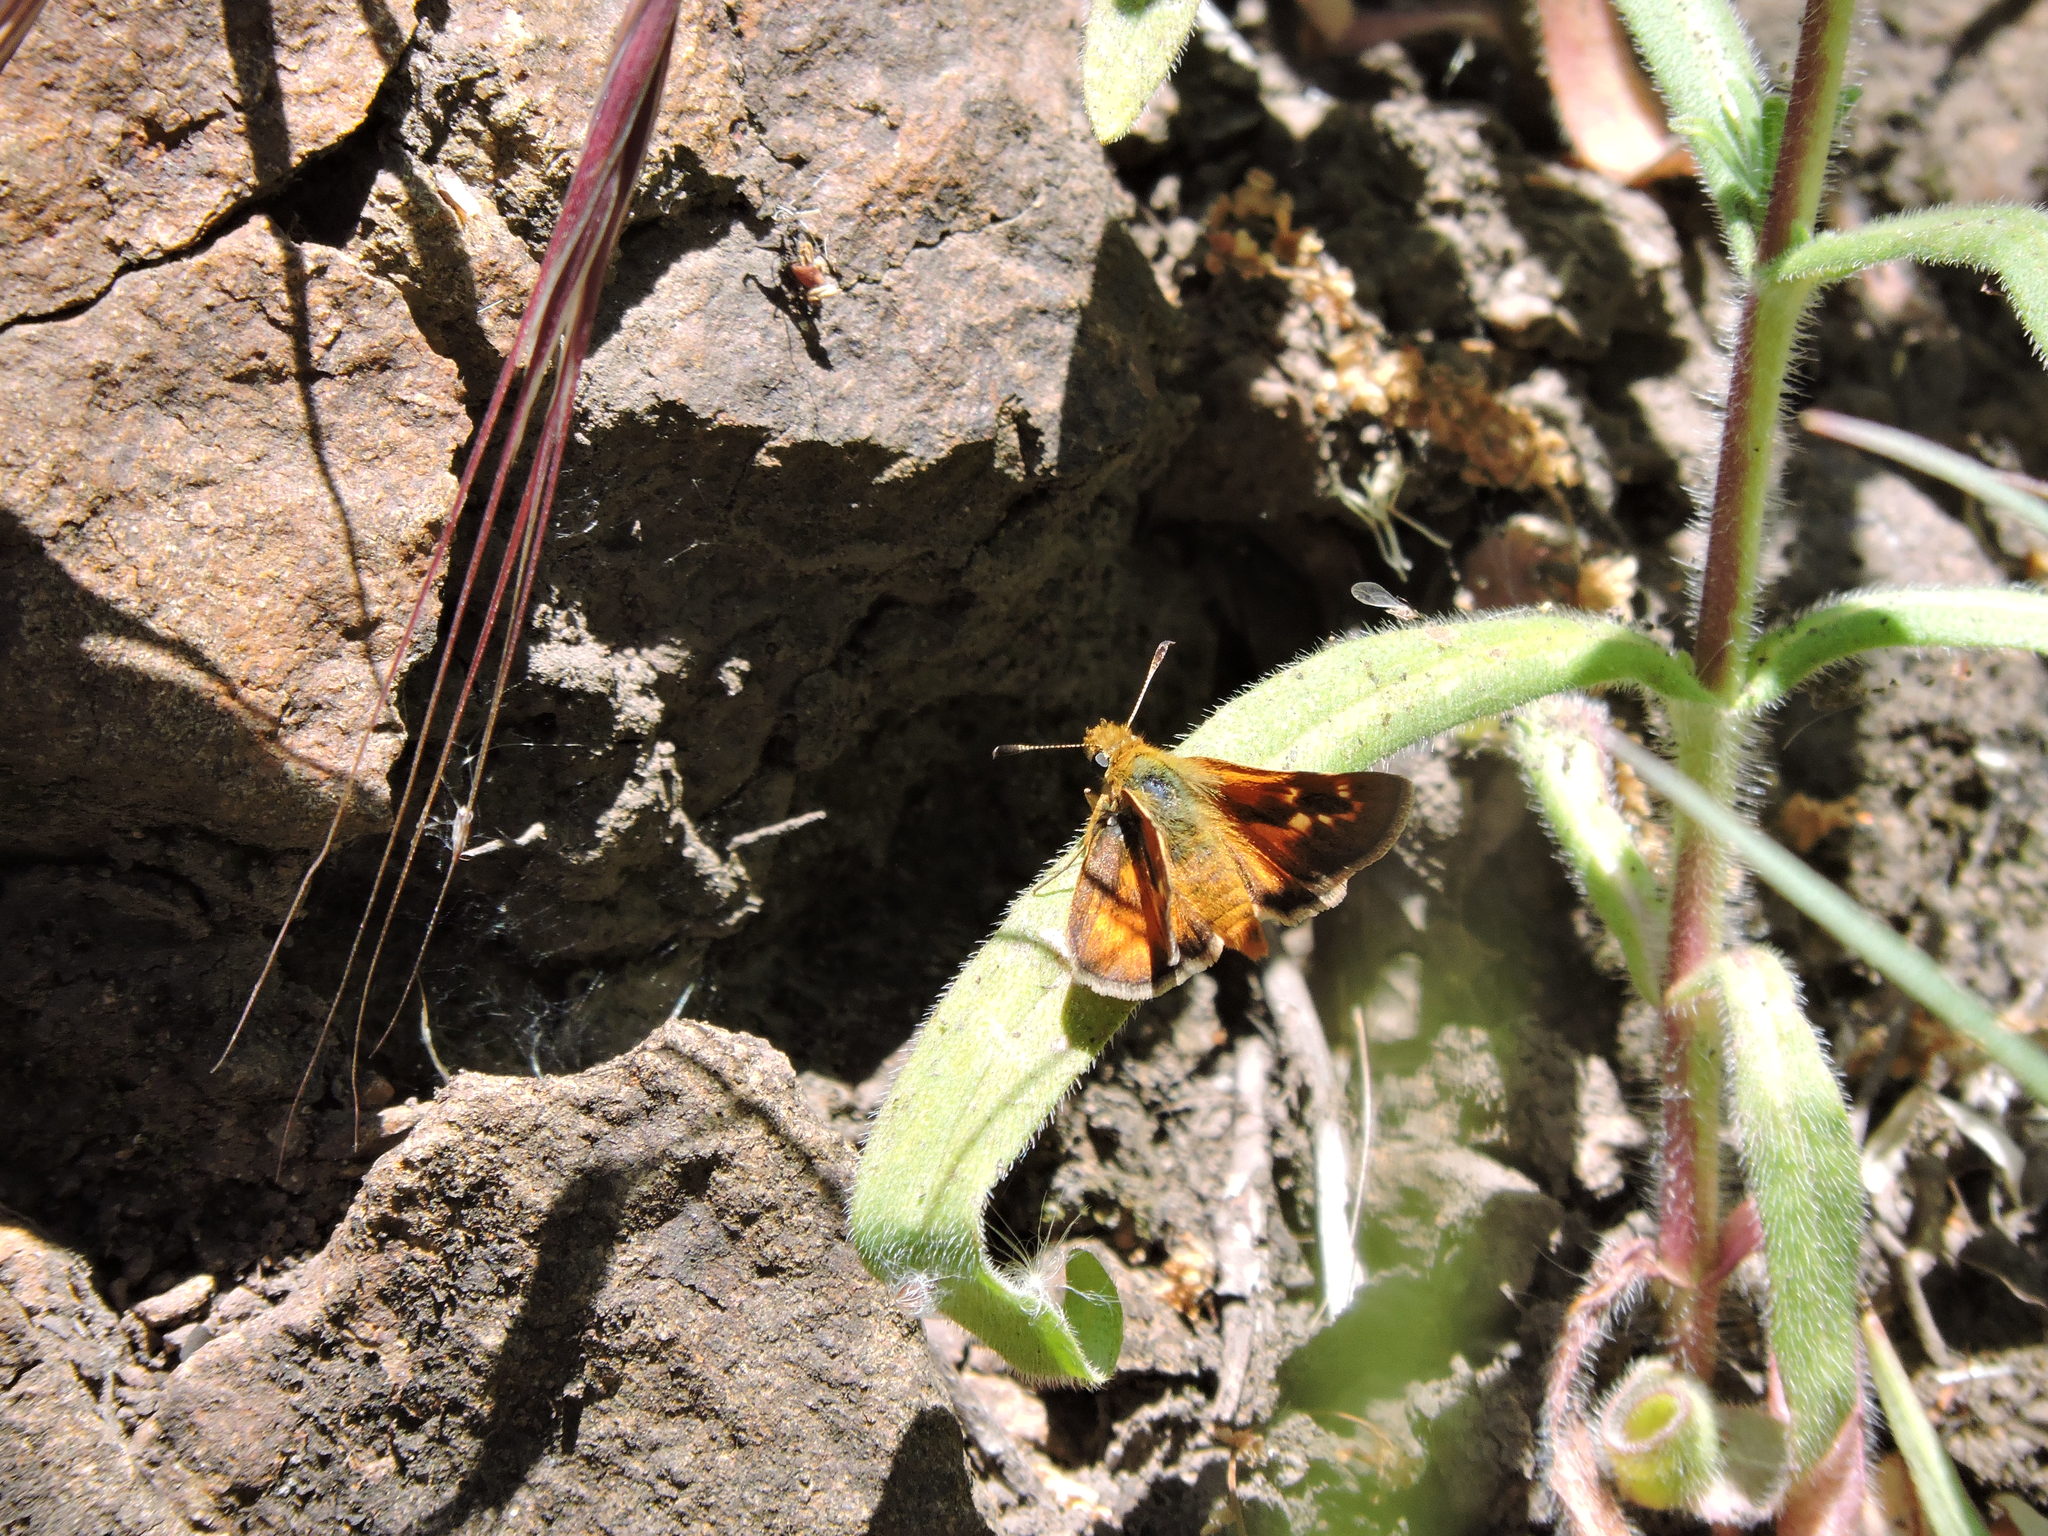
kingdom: Animalia
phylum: Arthropoda
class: Insecta
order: Lepidoptera
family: Hesperiidae
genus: Ochlodes
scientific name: Ochlodes agricola
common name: Rural skipper
